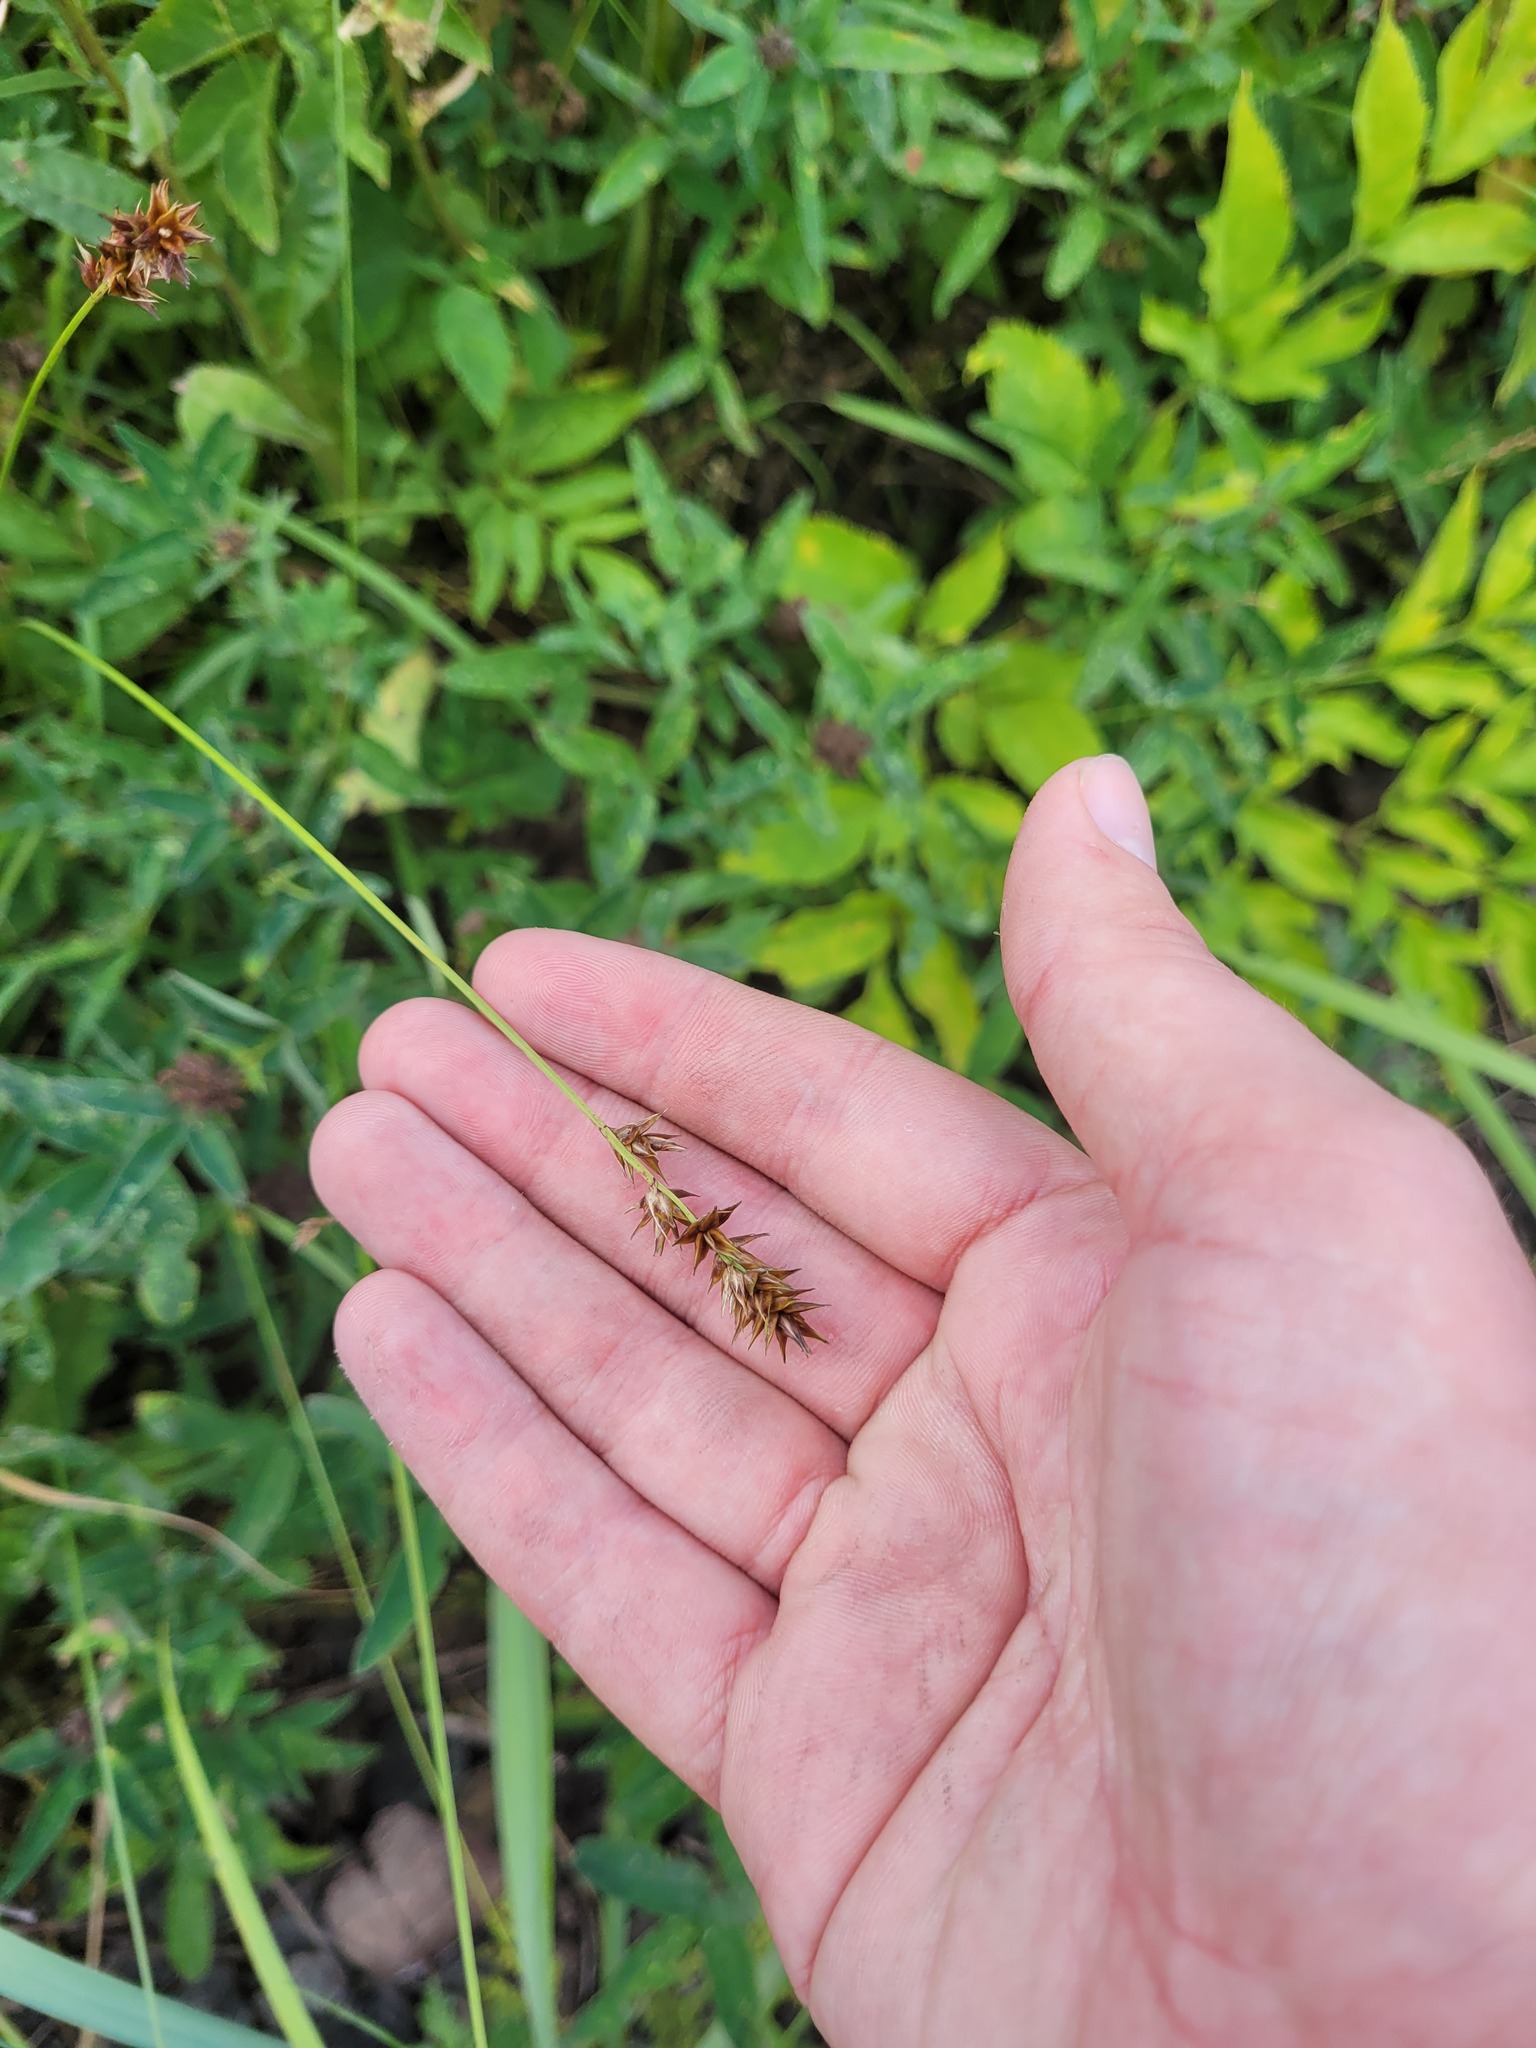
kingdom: Plantae
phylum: Tracheophyta
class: Liliopsida
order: Poales
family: Cyperaceae
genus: Carex
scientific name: Carex spicata
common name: Spiked sedge
